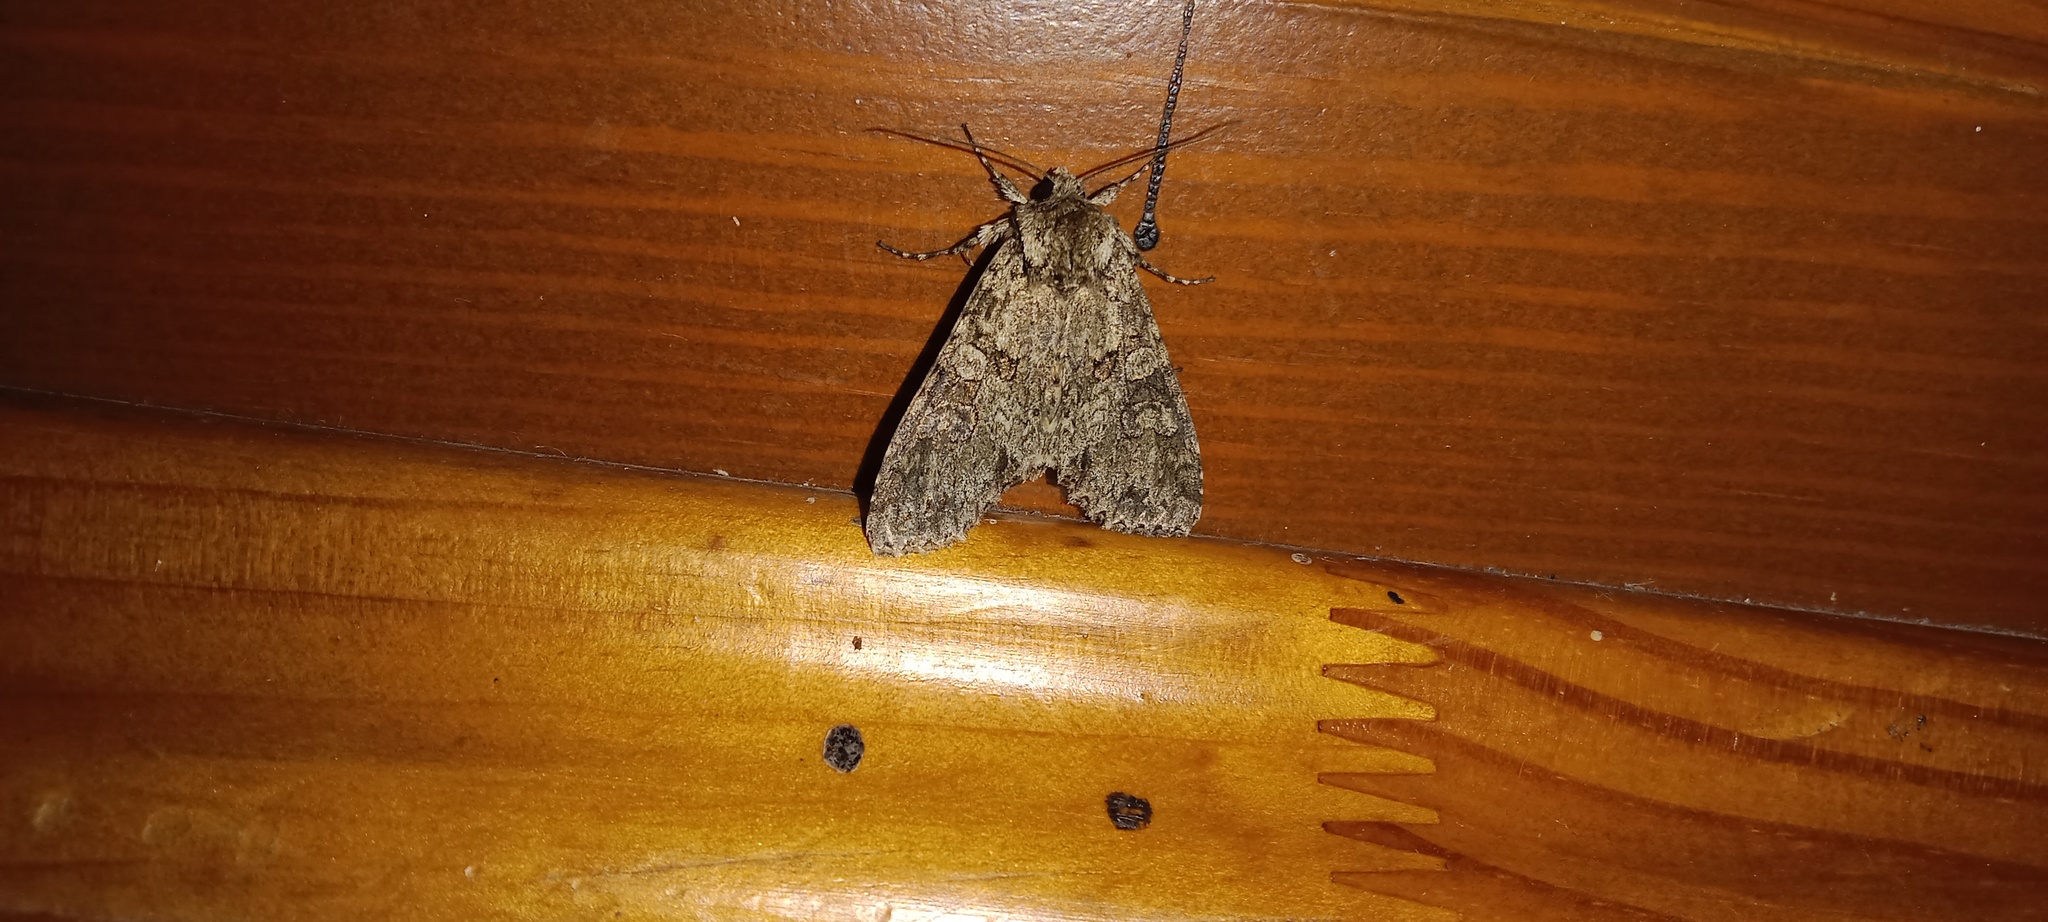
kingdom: Animalia
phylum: Arthropoda
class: Insecta
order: Lepidoptera
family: Noctuidae
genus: Polia
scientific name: Polia nebulosa
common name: Grey arches
